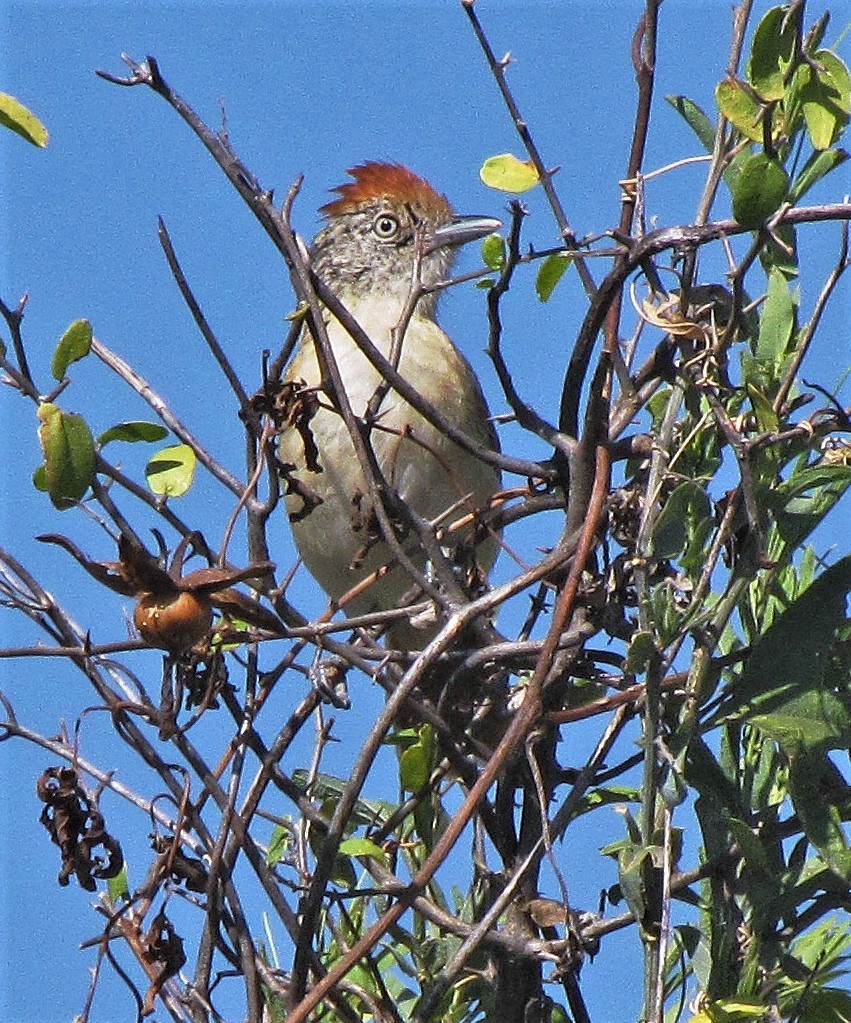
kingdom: Animalia
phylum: Chordata
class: Aves
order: Passeriformes
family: Thamnophilidae
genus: Thamnophilus
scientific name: Thamnophilus doliatus
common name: Barred antshrike
